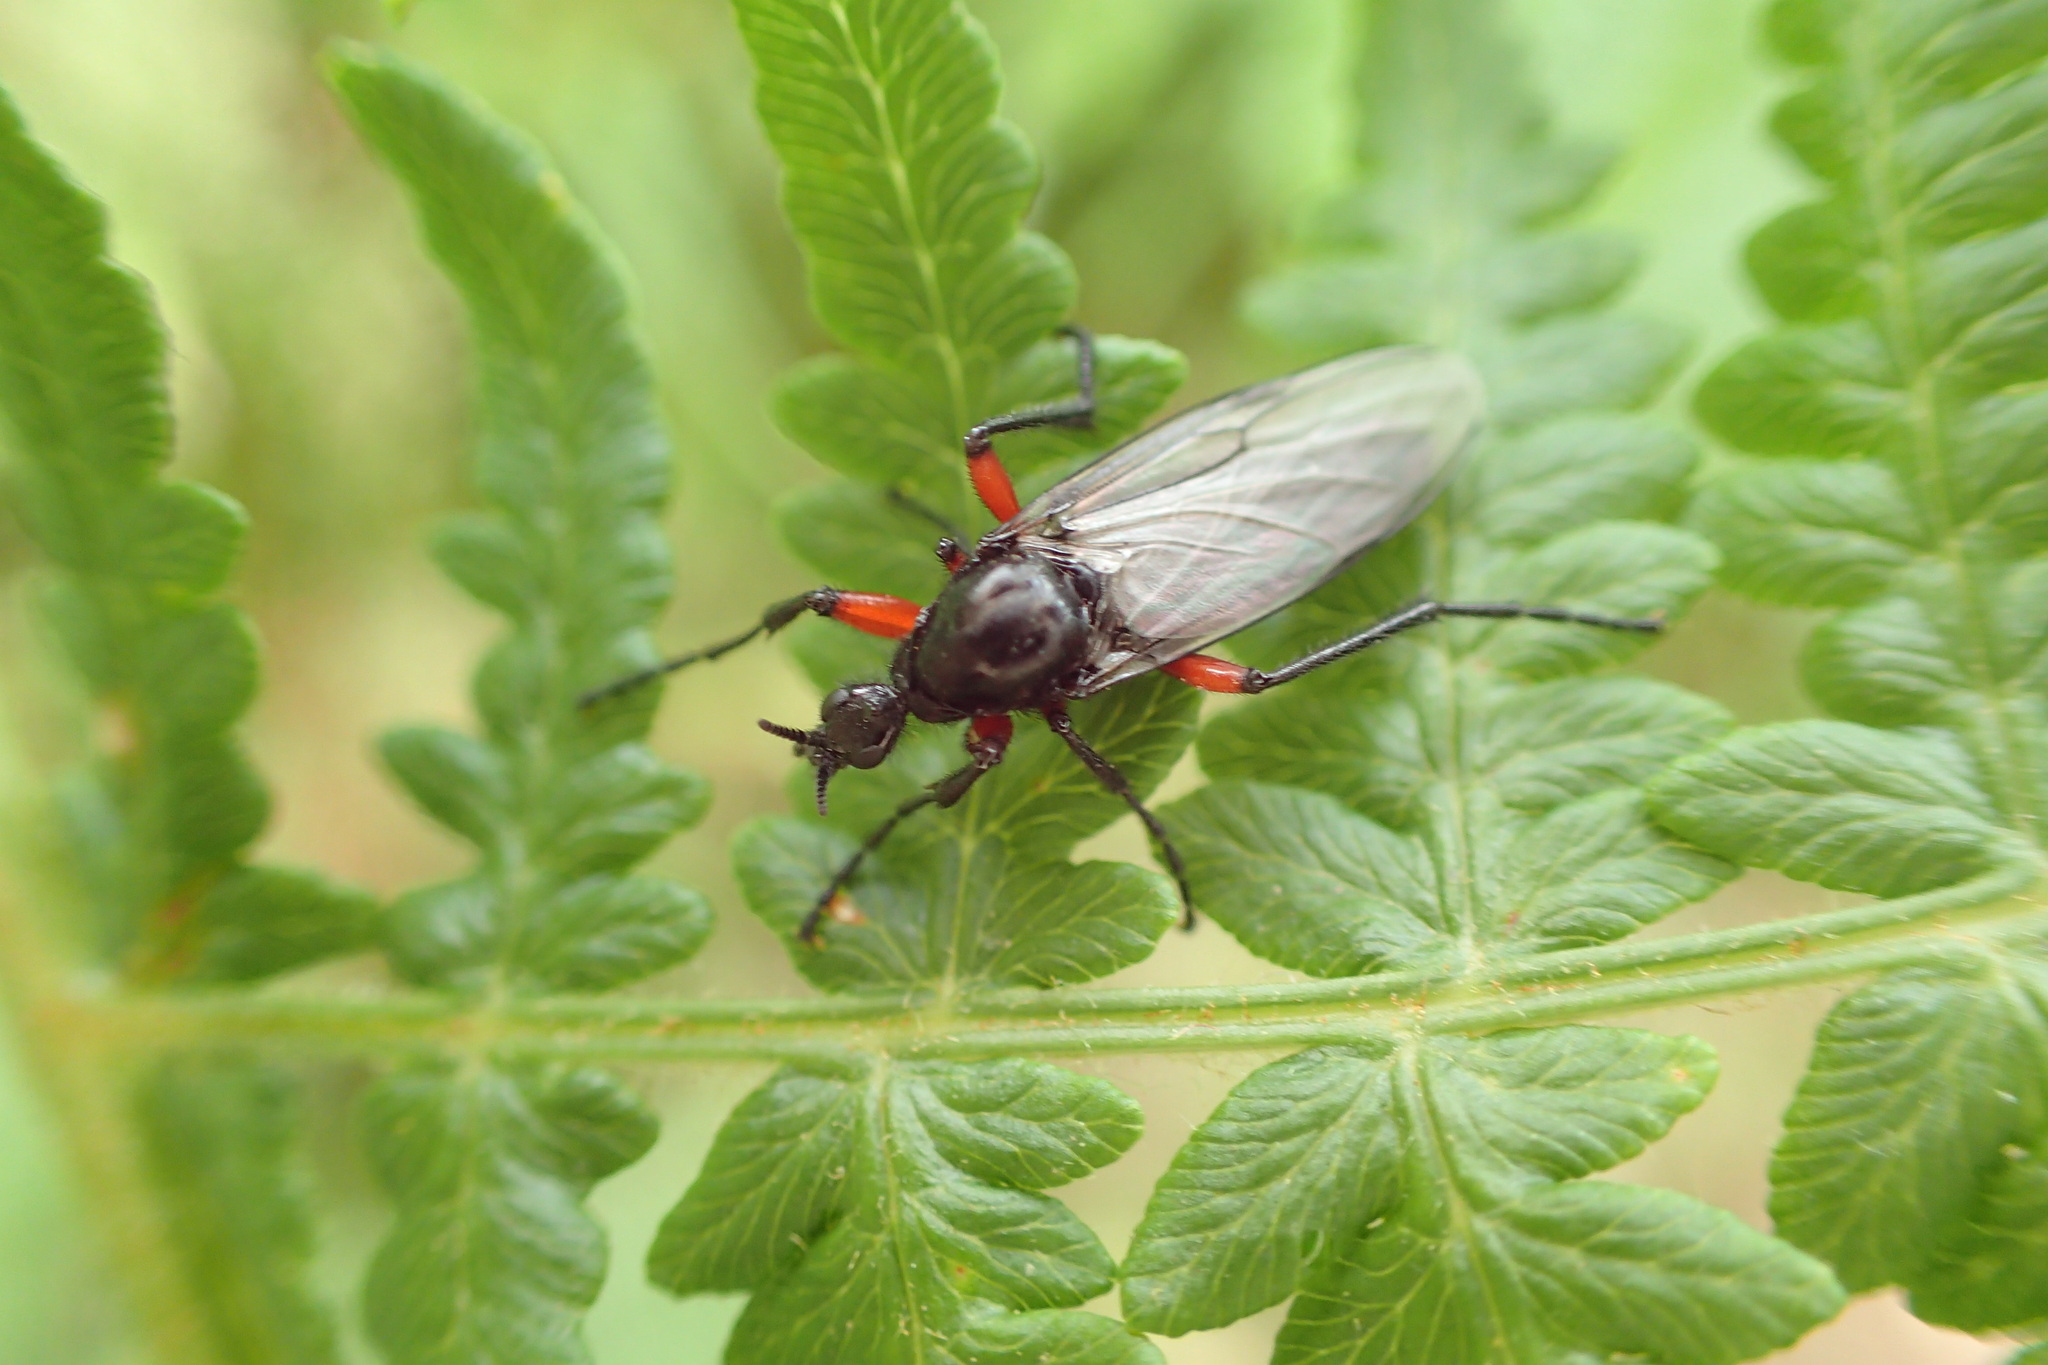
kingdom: Animalia
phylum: Arthropoda
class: Insecta
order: Diptera
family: Bibionidae
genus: Bibio
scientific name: Bibio pomonae
